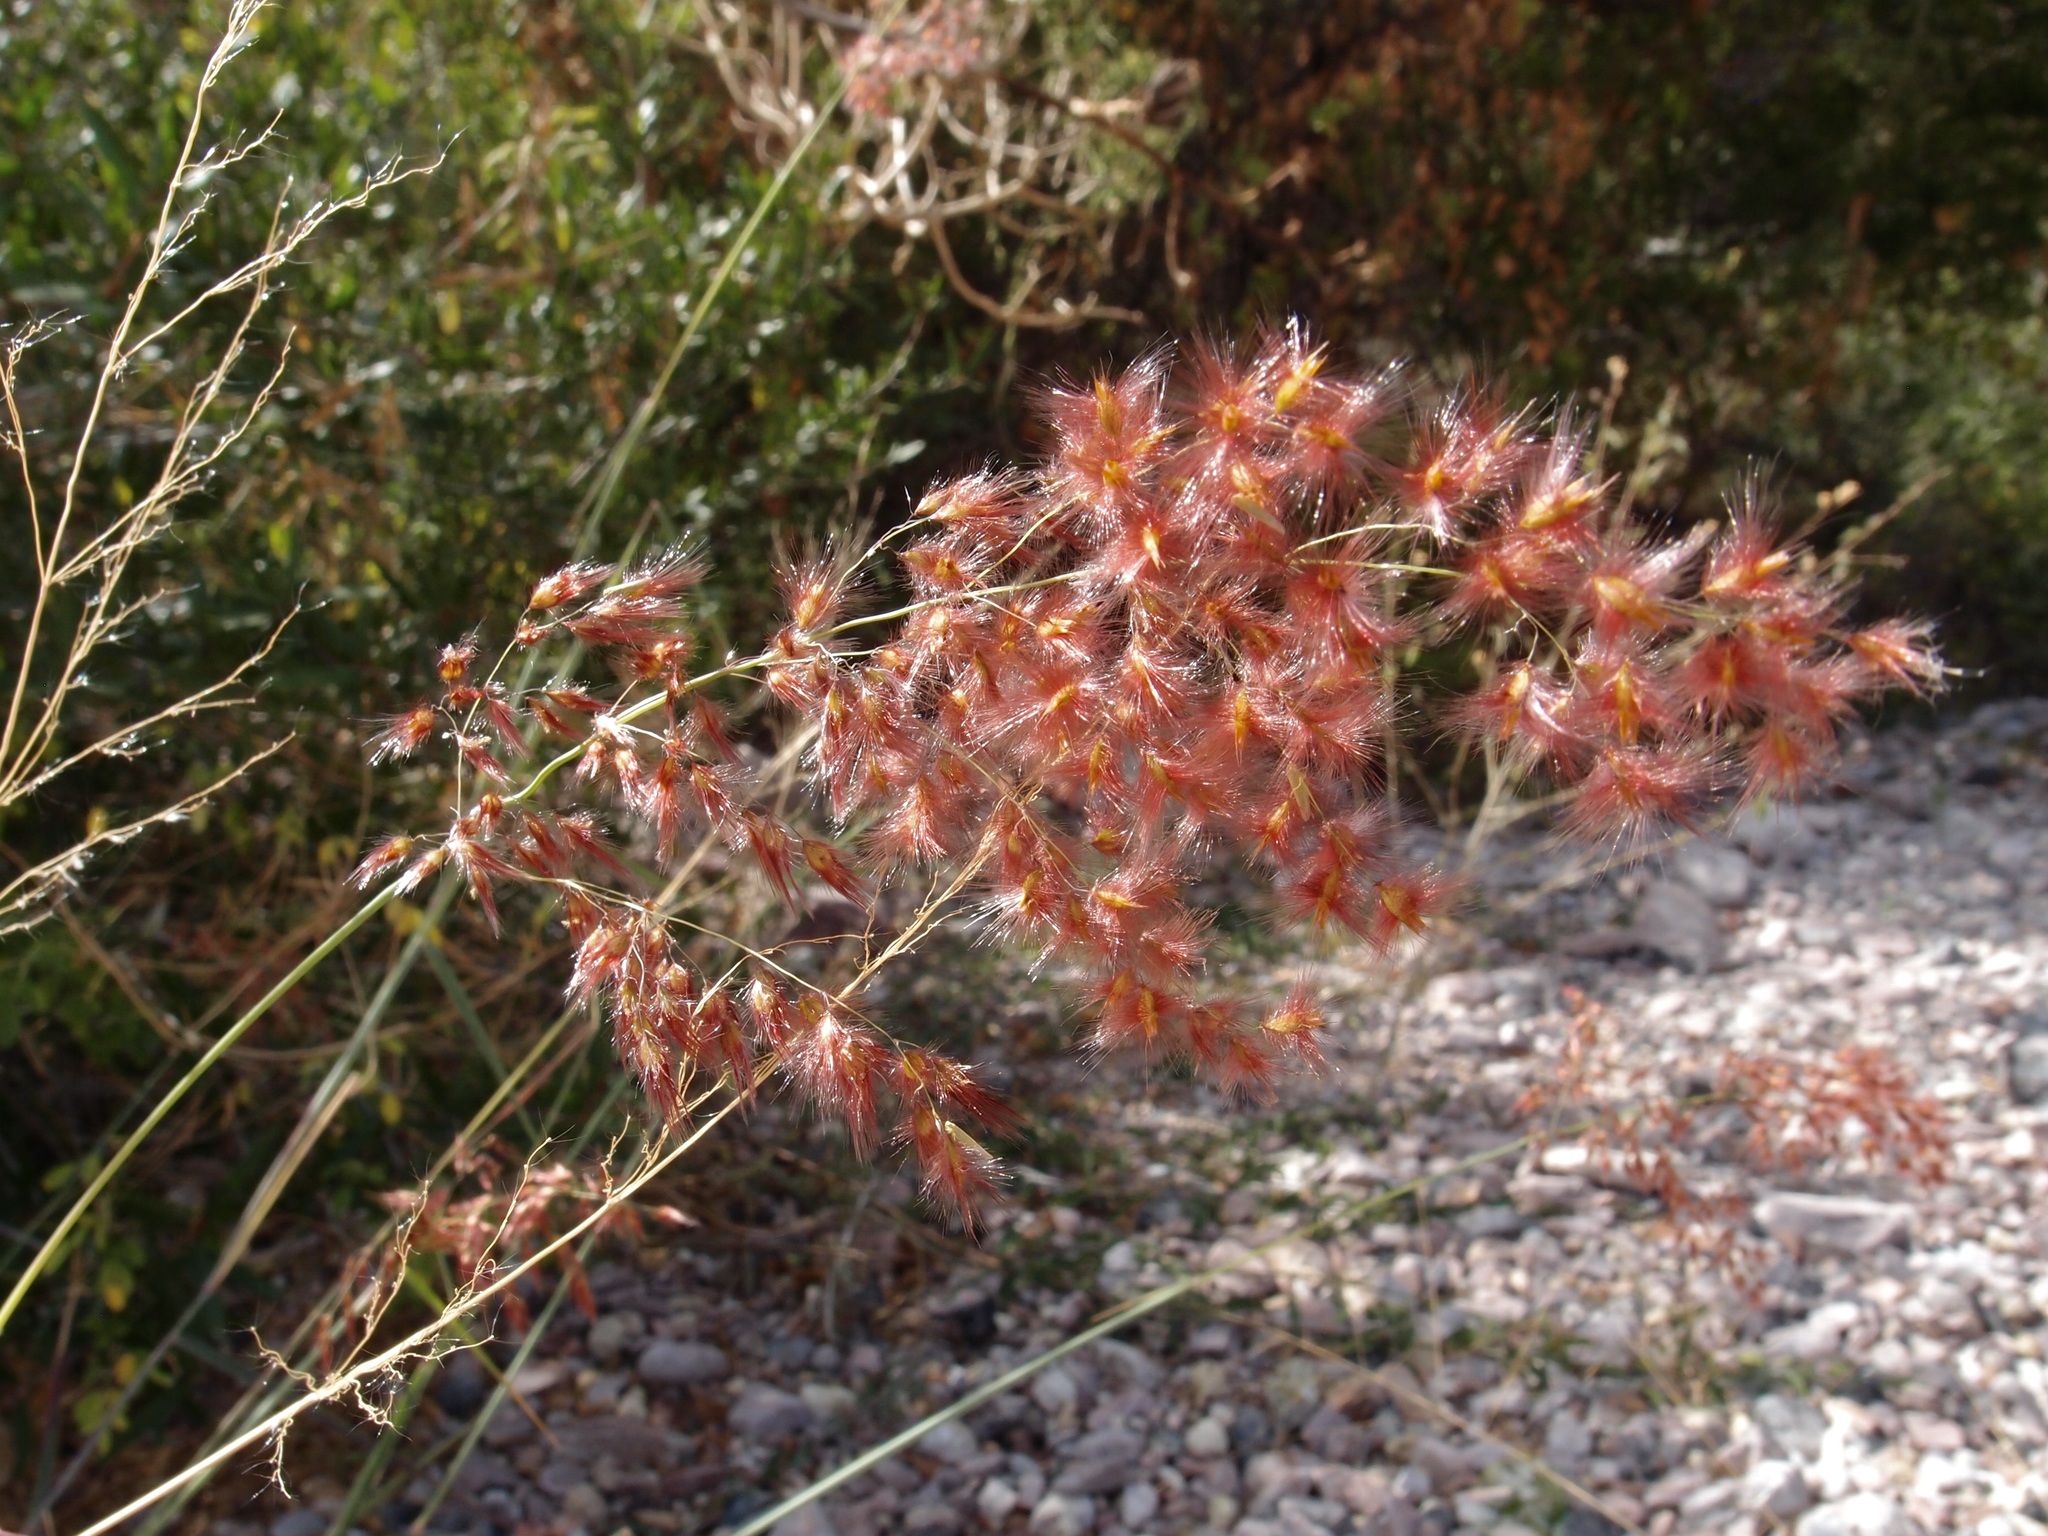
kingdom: Plantae
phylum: Tracheophyta
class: Liliopsida
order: Poales
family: Poaceae
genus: Melinis
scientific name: Melinis repens
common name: Rose natal grass
